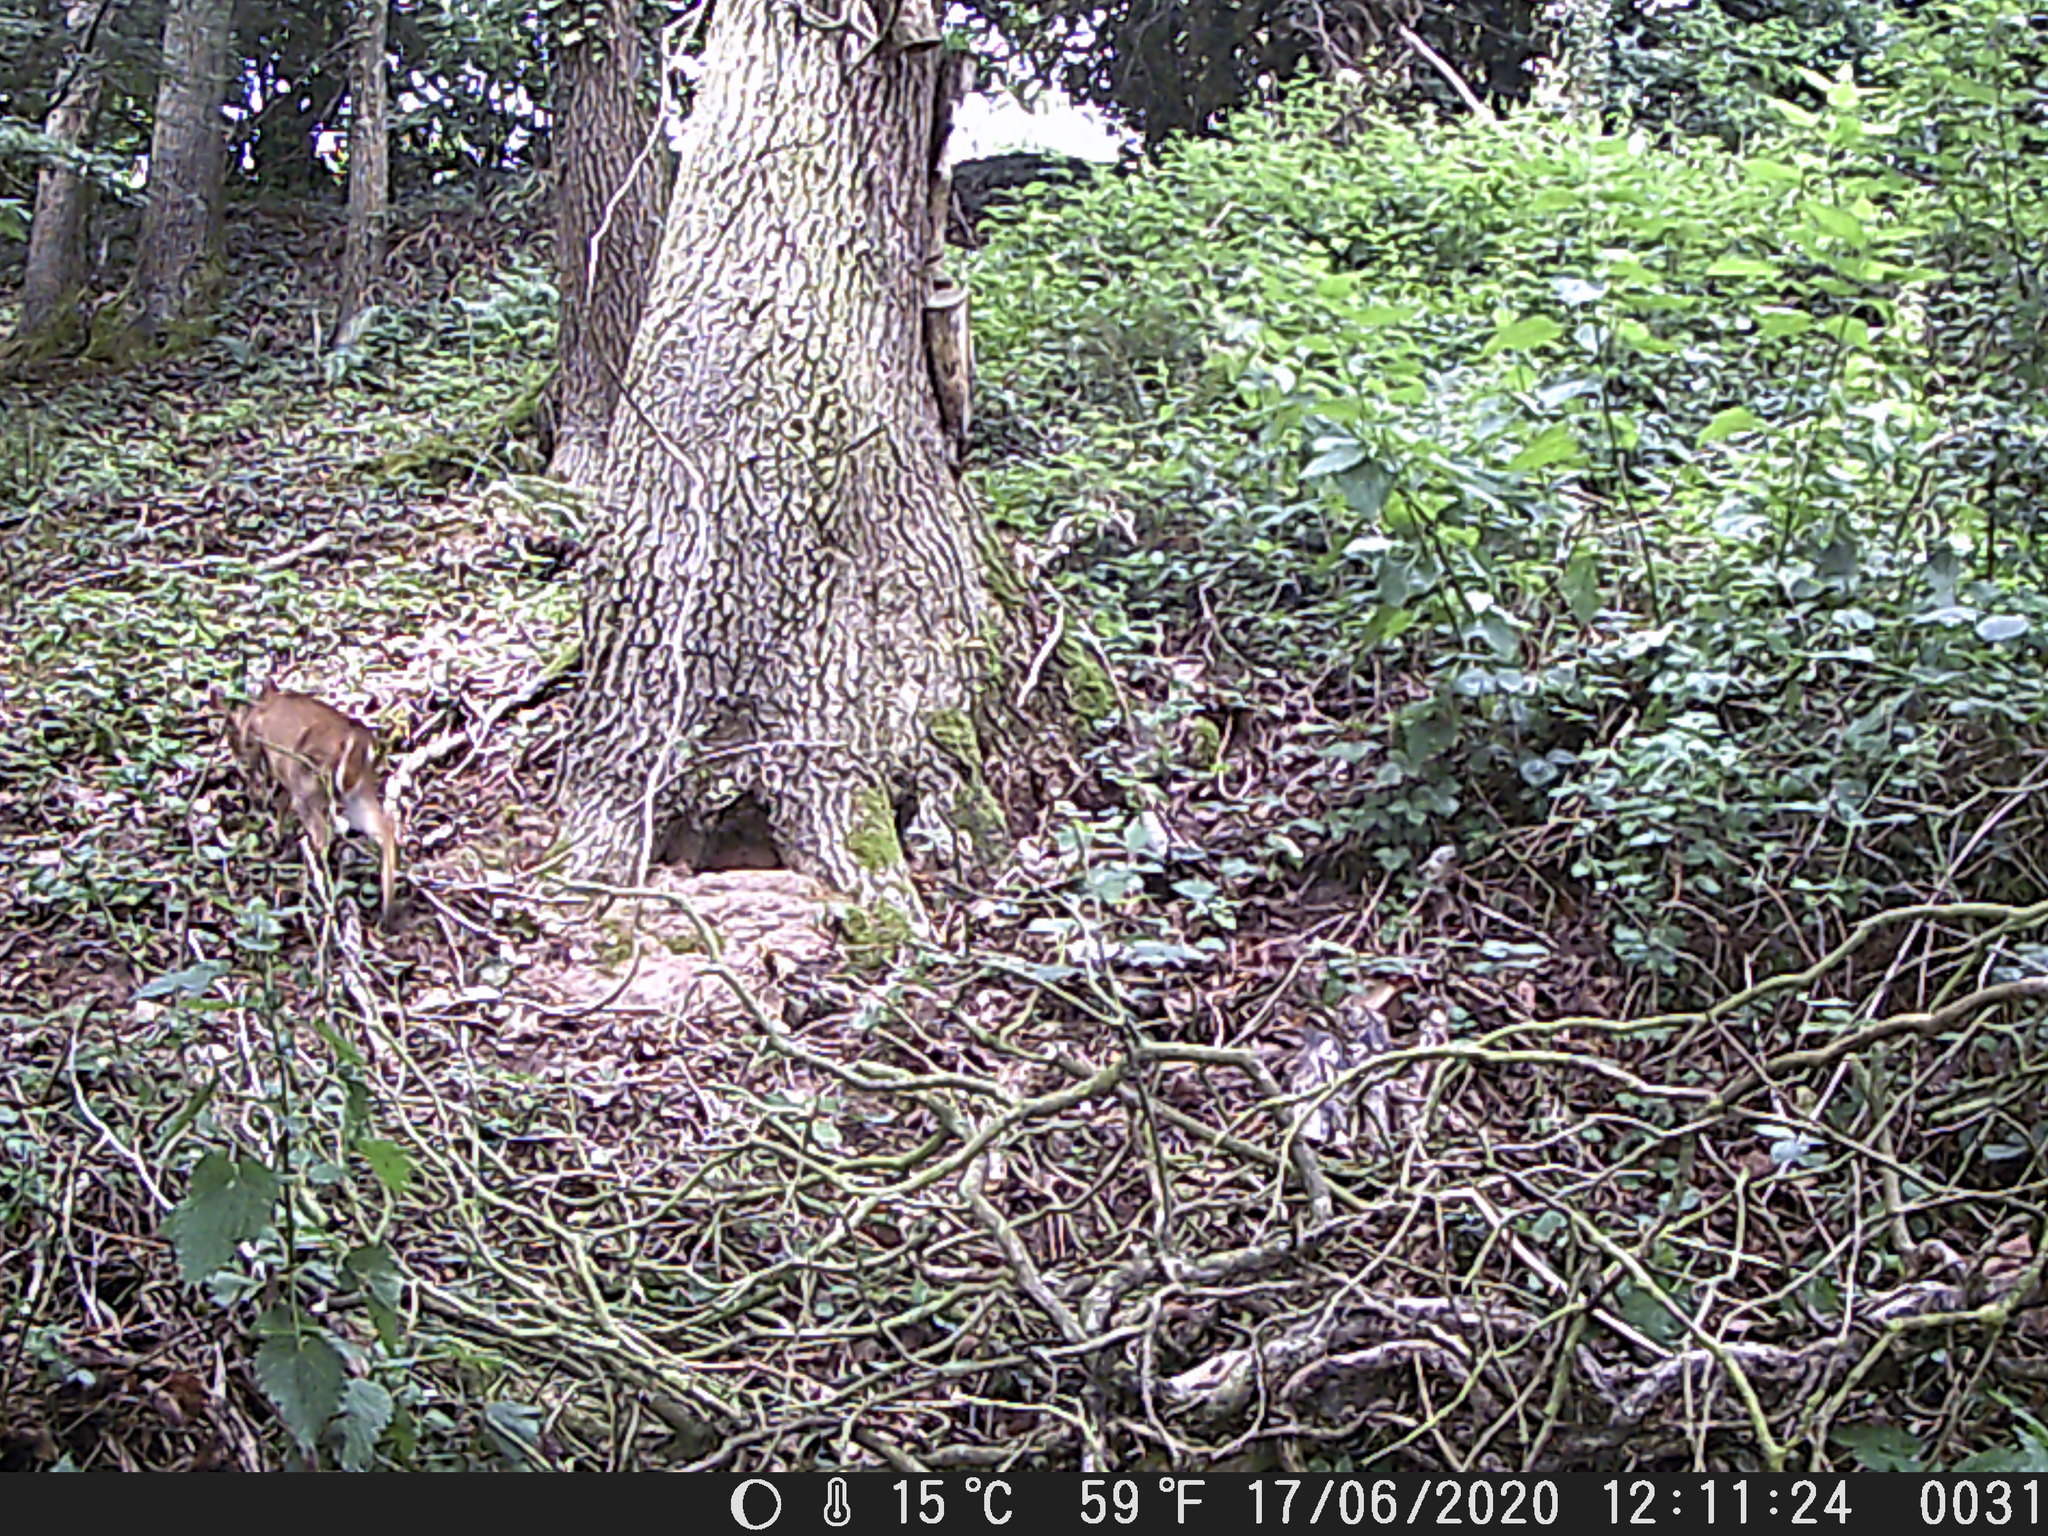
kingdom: Animalia
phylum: Chordata
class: Mammalia
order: Artiodactyla
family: Cervidae
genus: Muntiacus
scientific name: Muntiacus reevesi
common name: Reeves' muntjac
